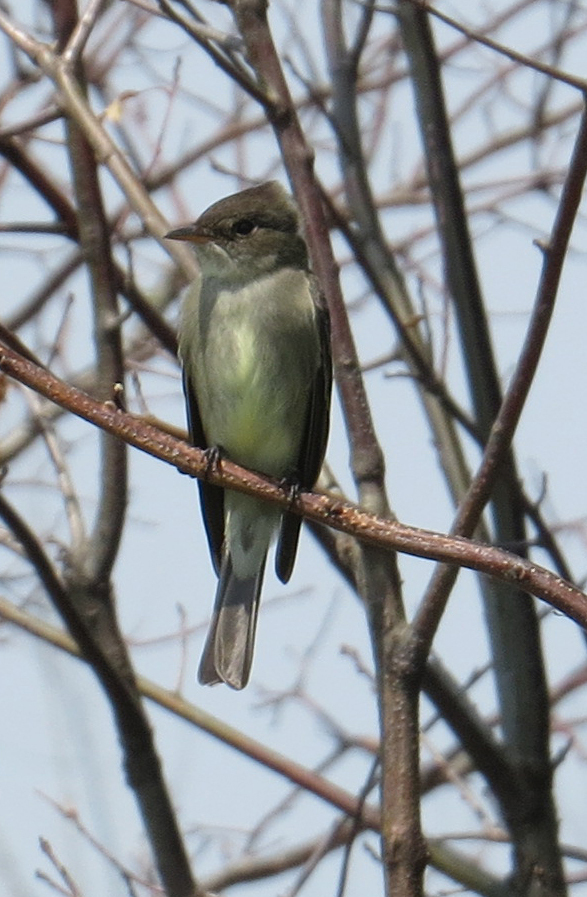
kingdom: Animalia
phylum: Chordata
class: Aves
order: Passeriformes
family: Tyrannidae
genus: Contopus
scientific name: Contopus virens
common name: Eastern wood-pewee
